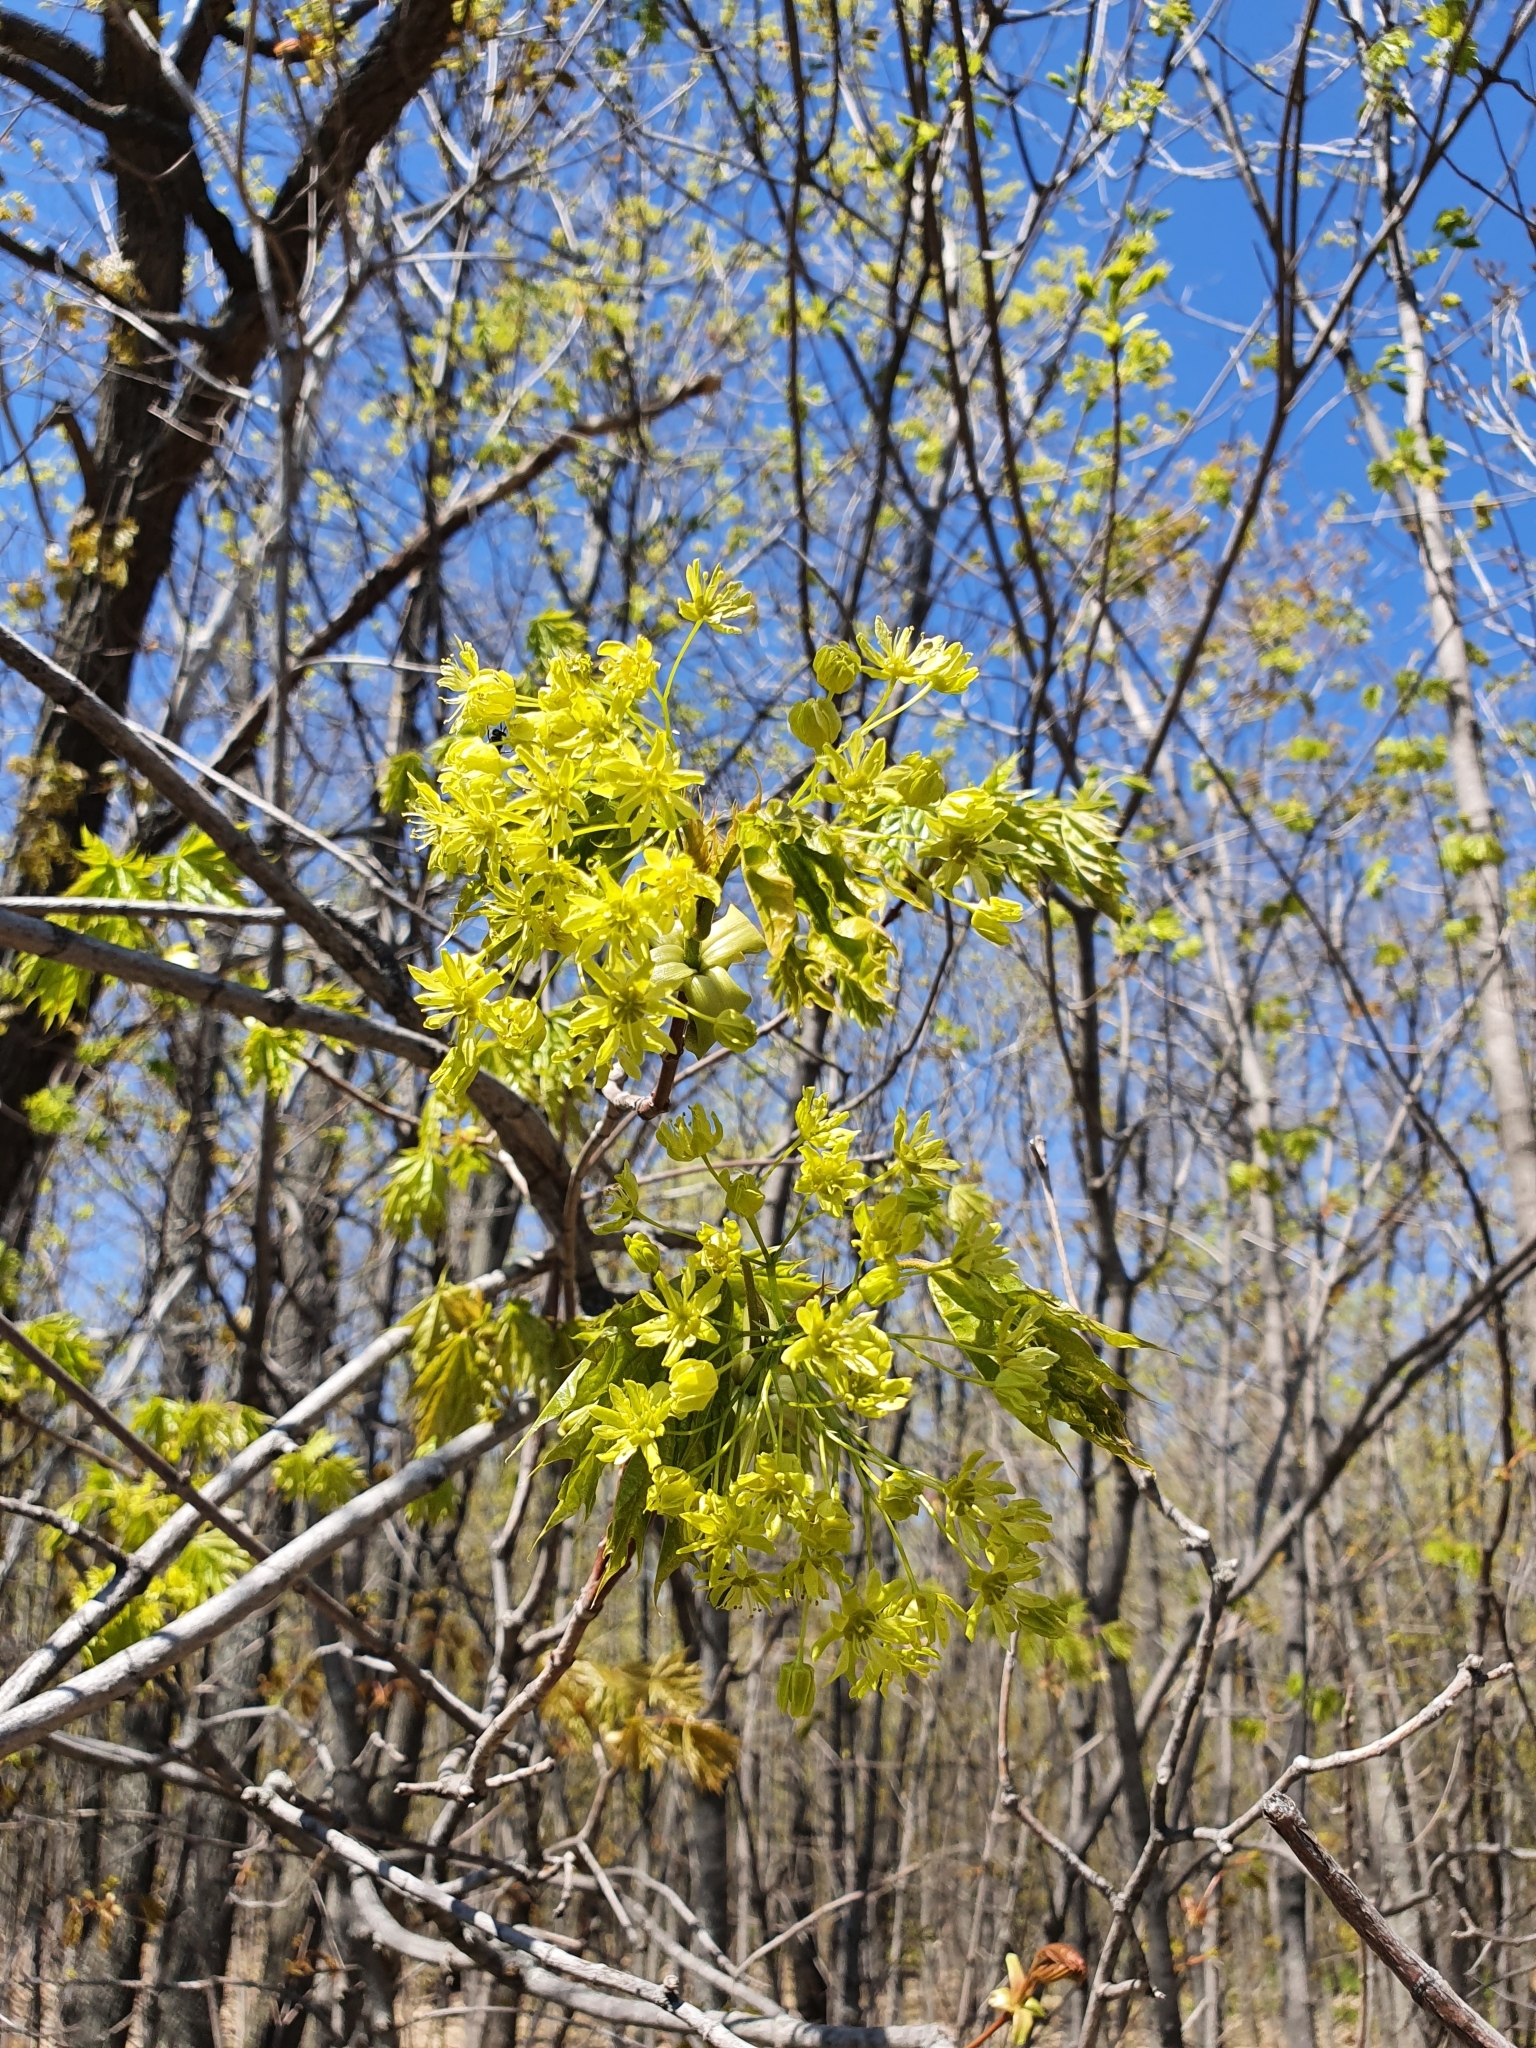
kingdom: Plantae
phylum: Tracheophyta
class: Magnoliopsida
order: Sapindales
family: Sapindaceae
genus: Acer
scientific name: Acer platanoides
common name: Norway maple
